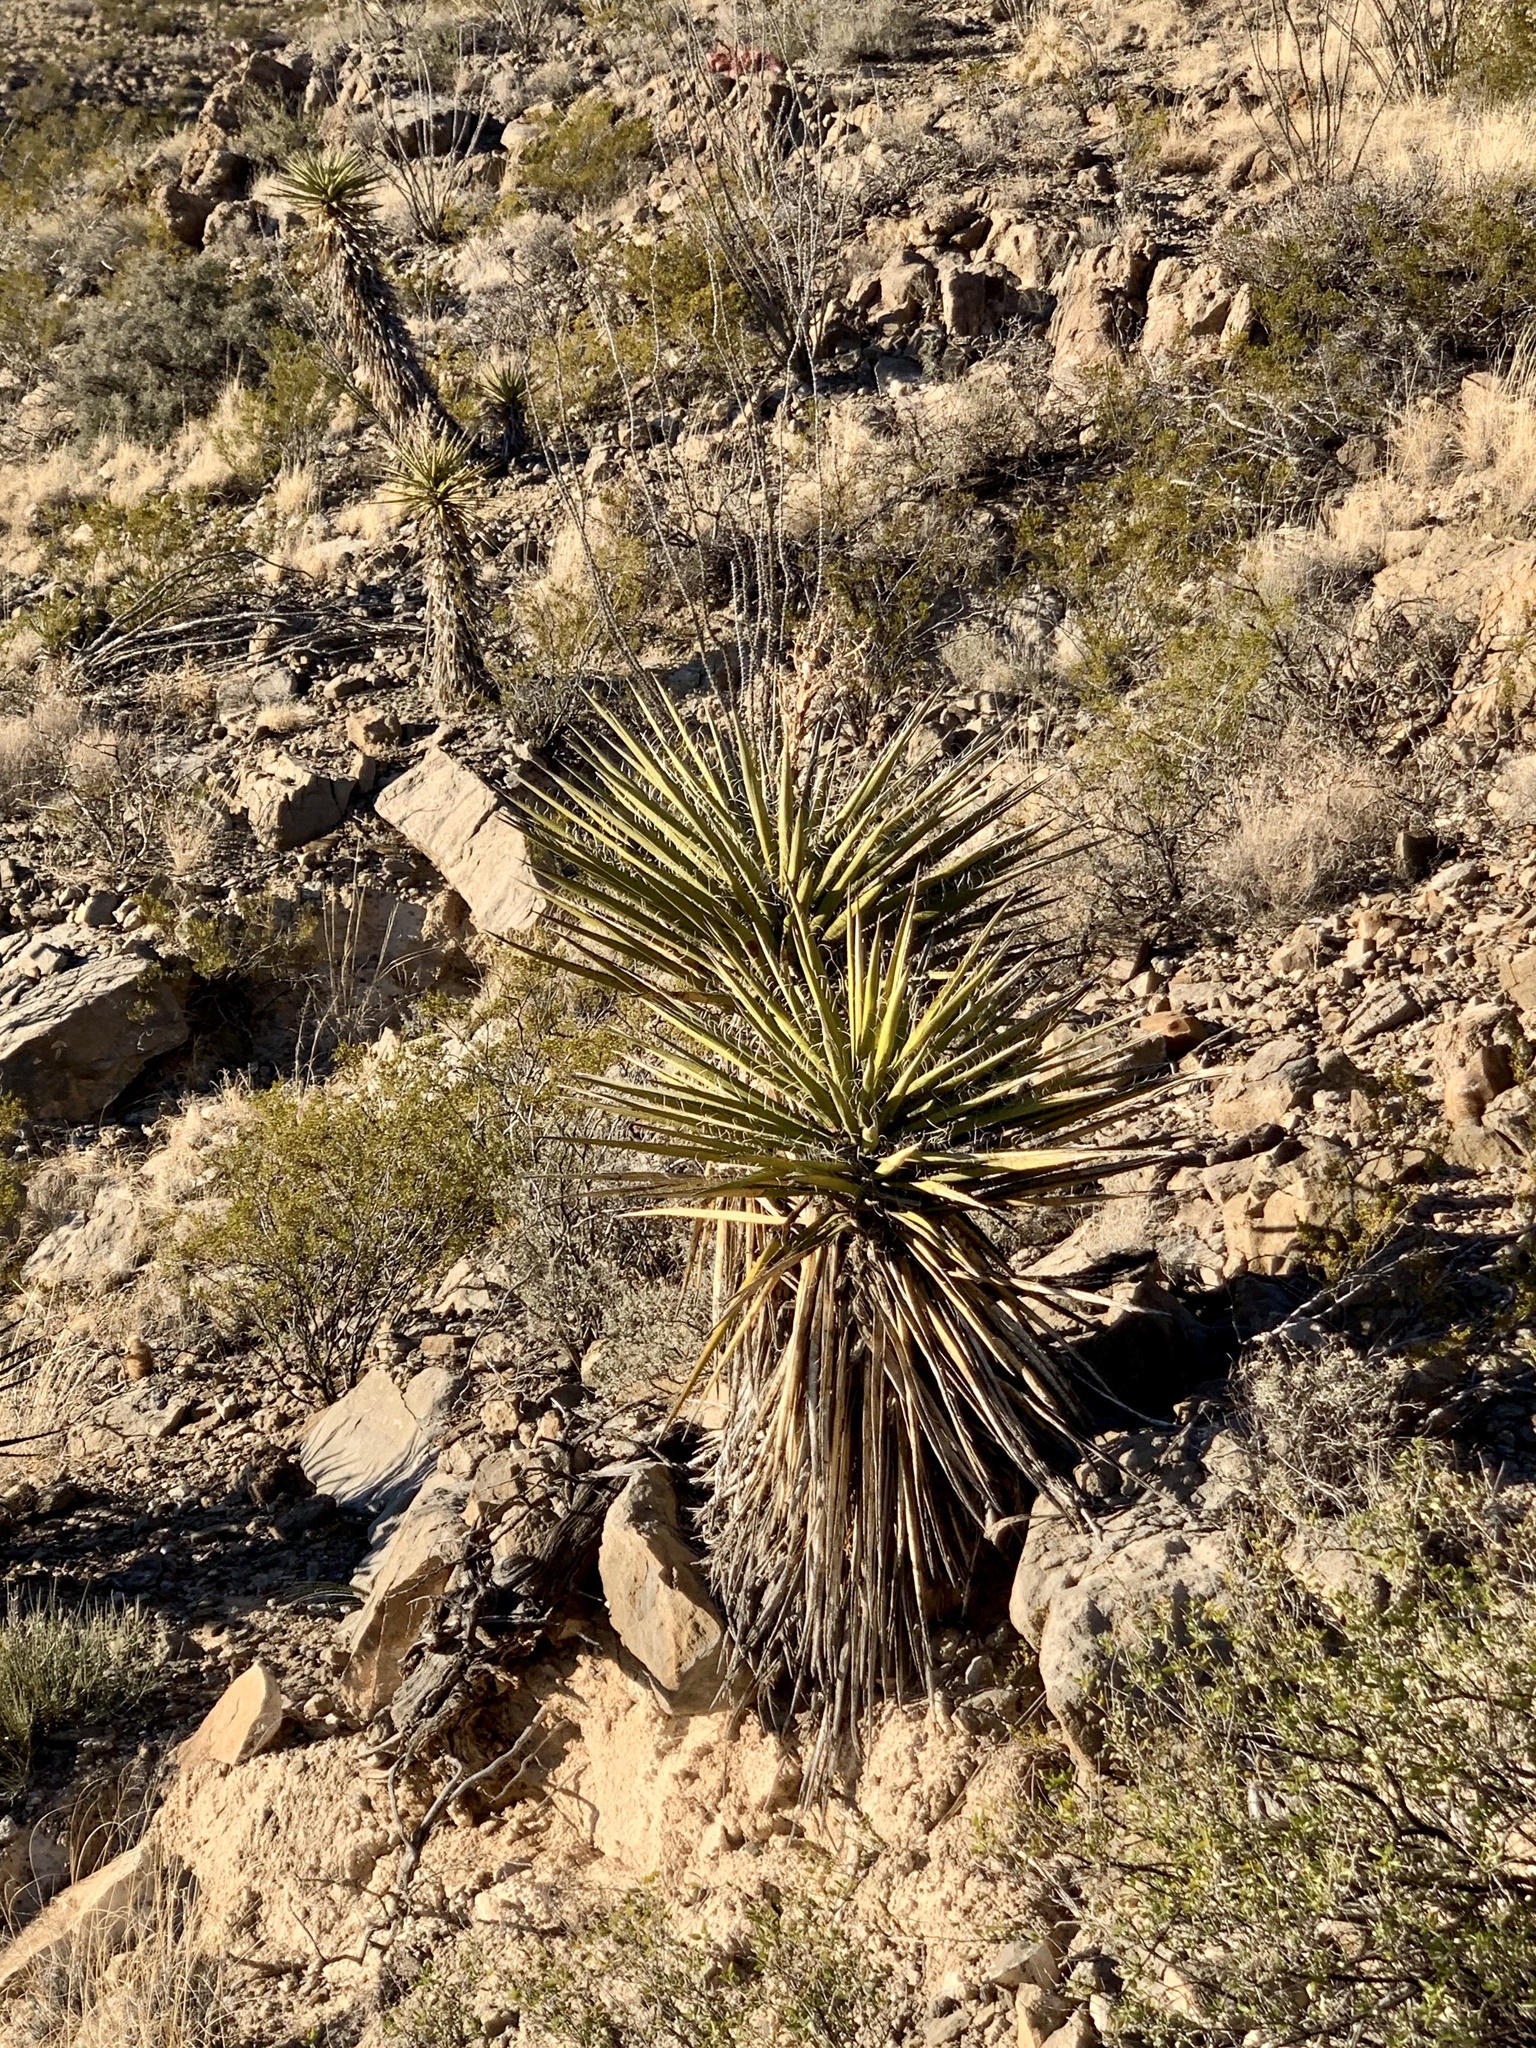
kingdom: Plantae
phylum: Tracheophyta
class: Liliopsida
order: Asparagales
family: Asparagaceae
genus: Yucca
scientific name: Yucca treculiana
